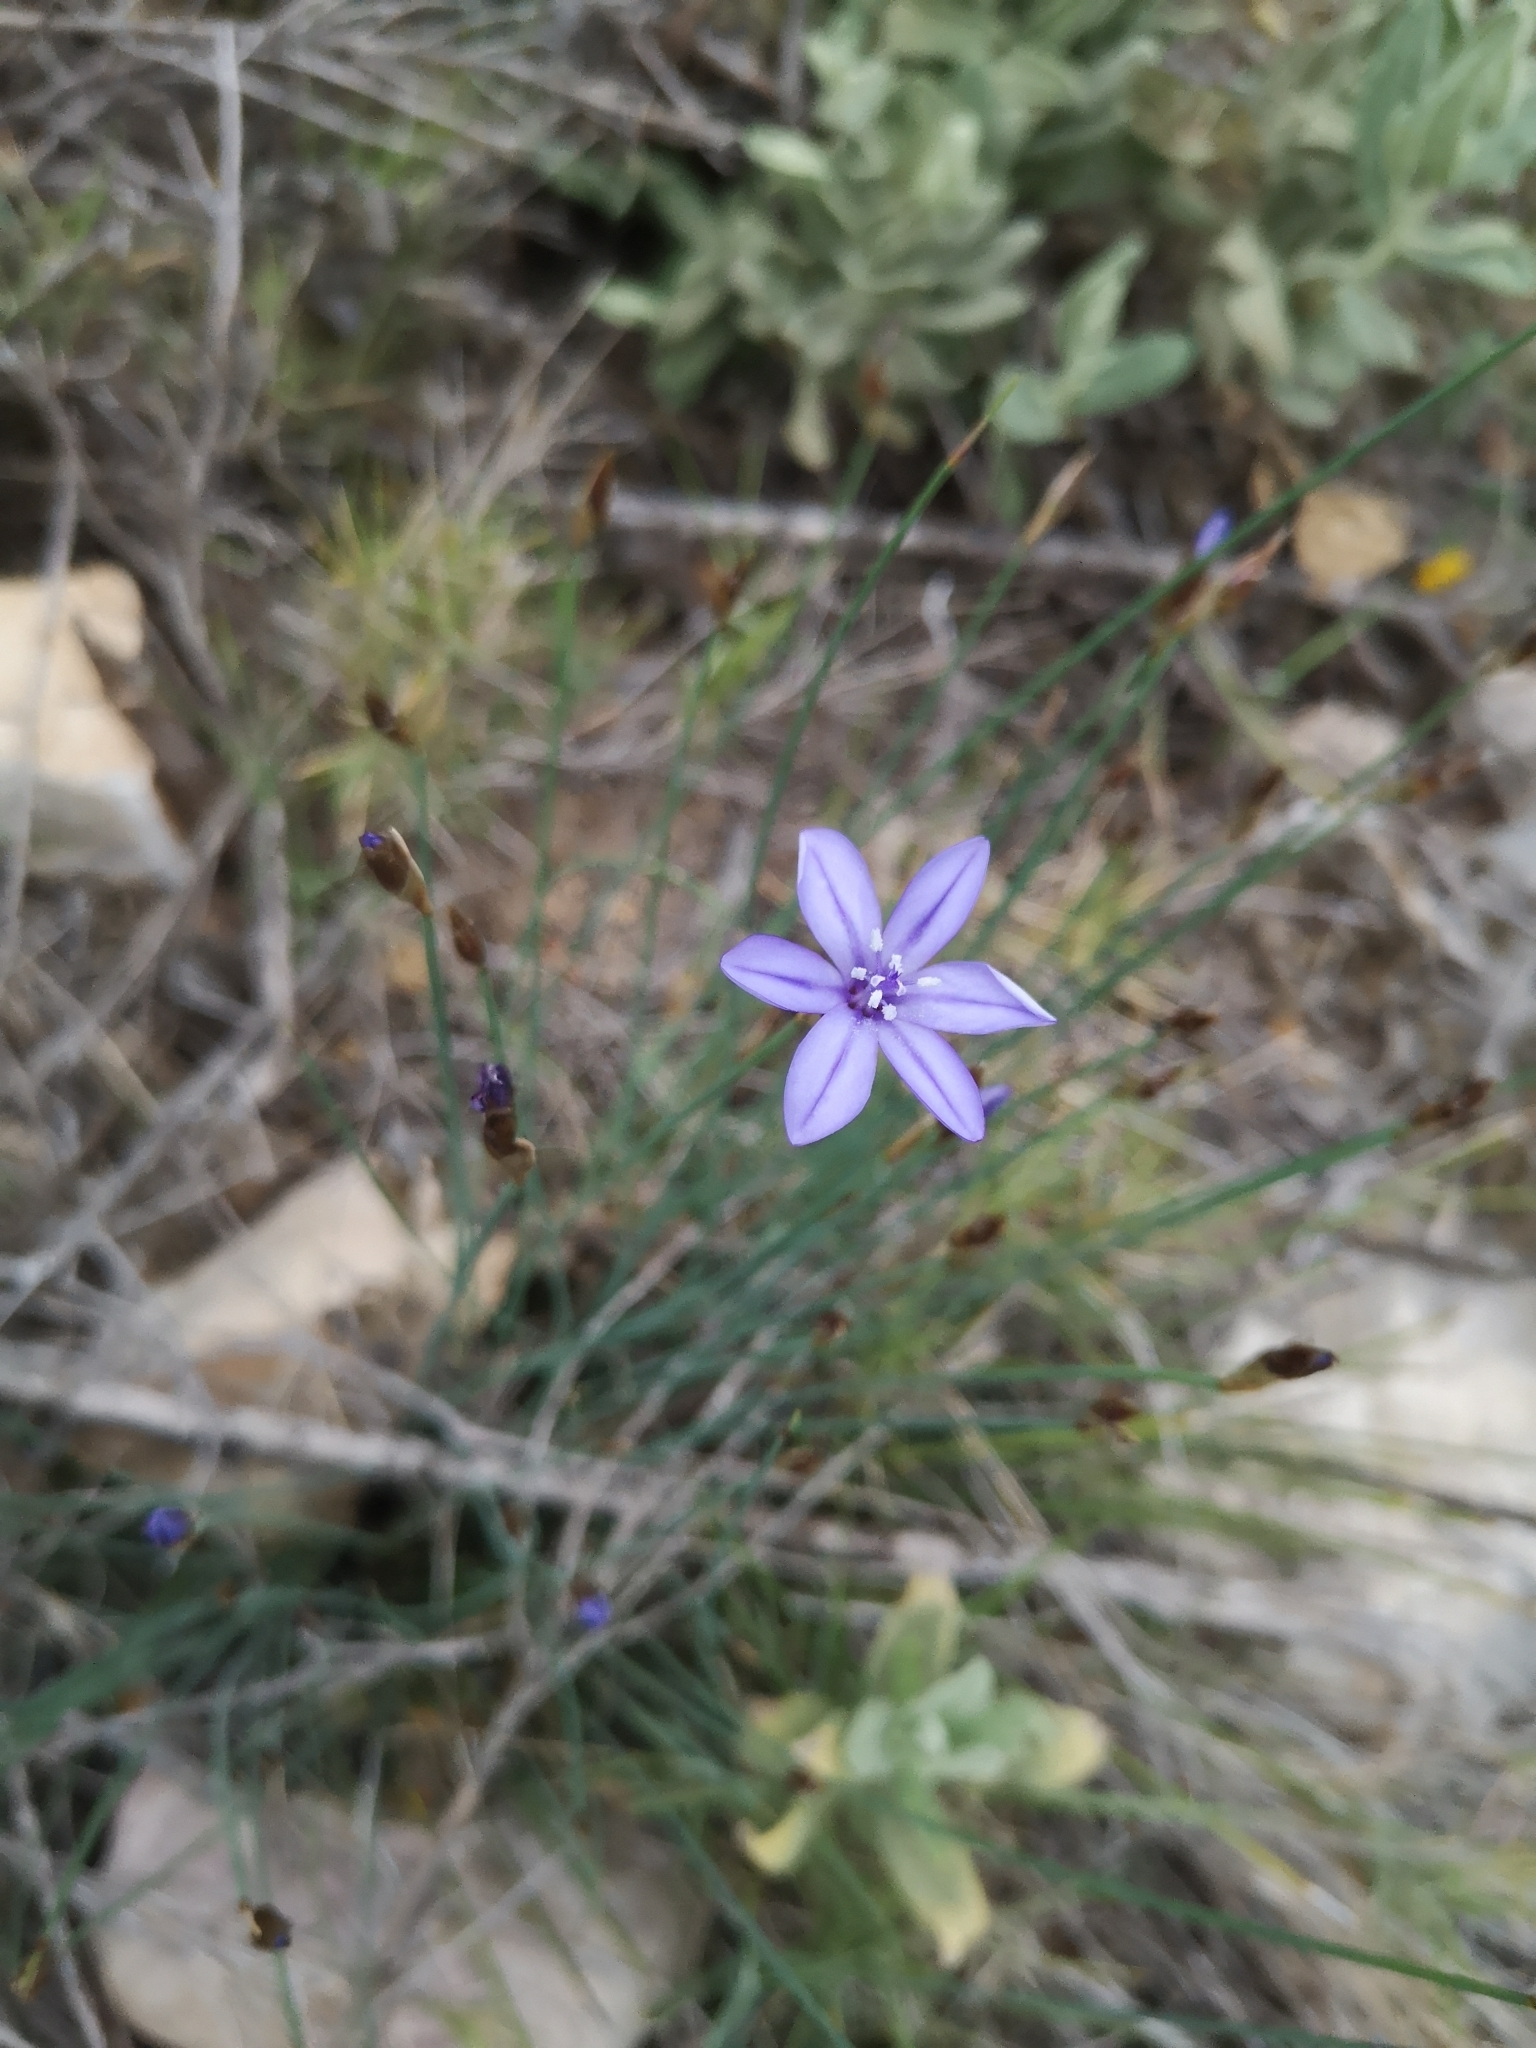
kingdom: Plantae
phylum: Tracheophyta
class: Liliopsida
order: Asparagales
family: Asparagaceae
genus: Aphyllanthes
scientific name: Aphyllanthes monspeliensis
